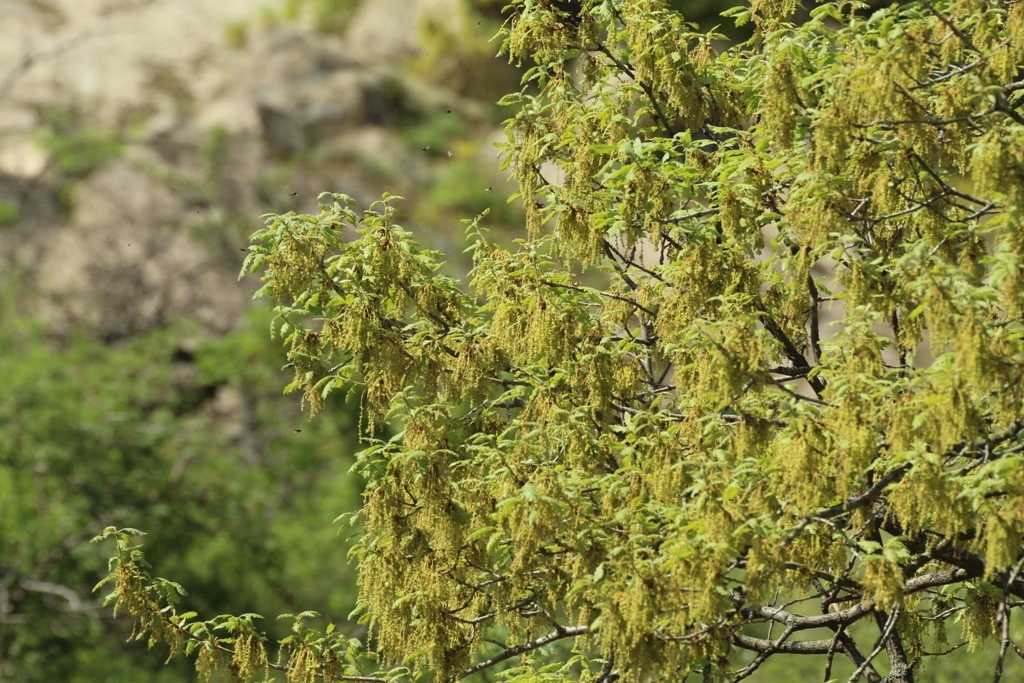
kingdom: Plantae
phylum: Tracheophyta
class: Magnoliopsida
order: Fagales
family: Fagaceae
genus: Quercus
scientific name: Quercus pubescens
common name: Downy oak
